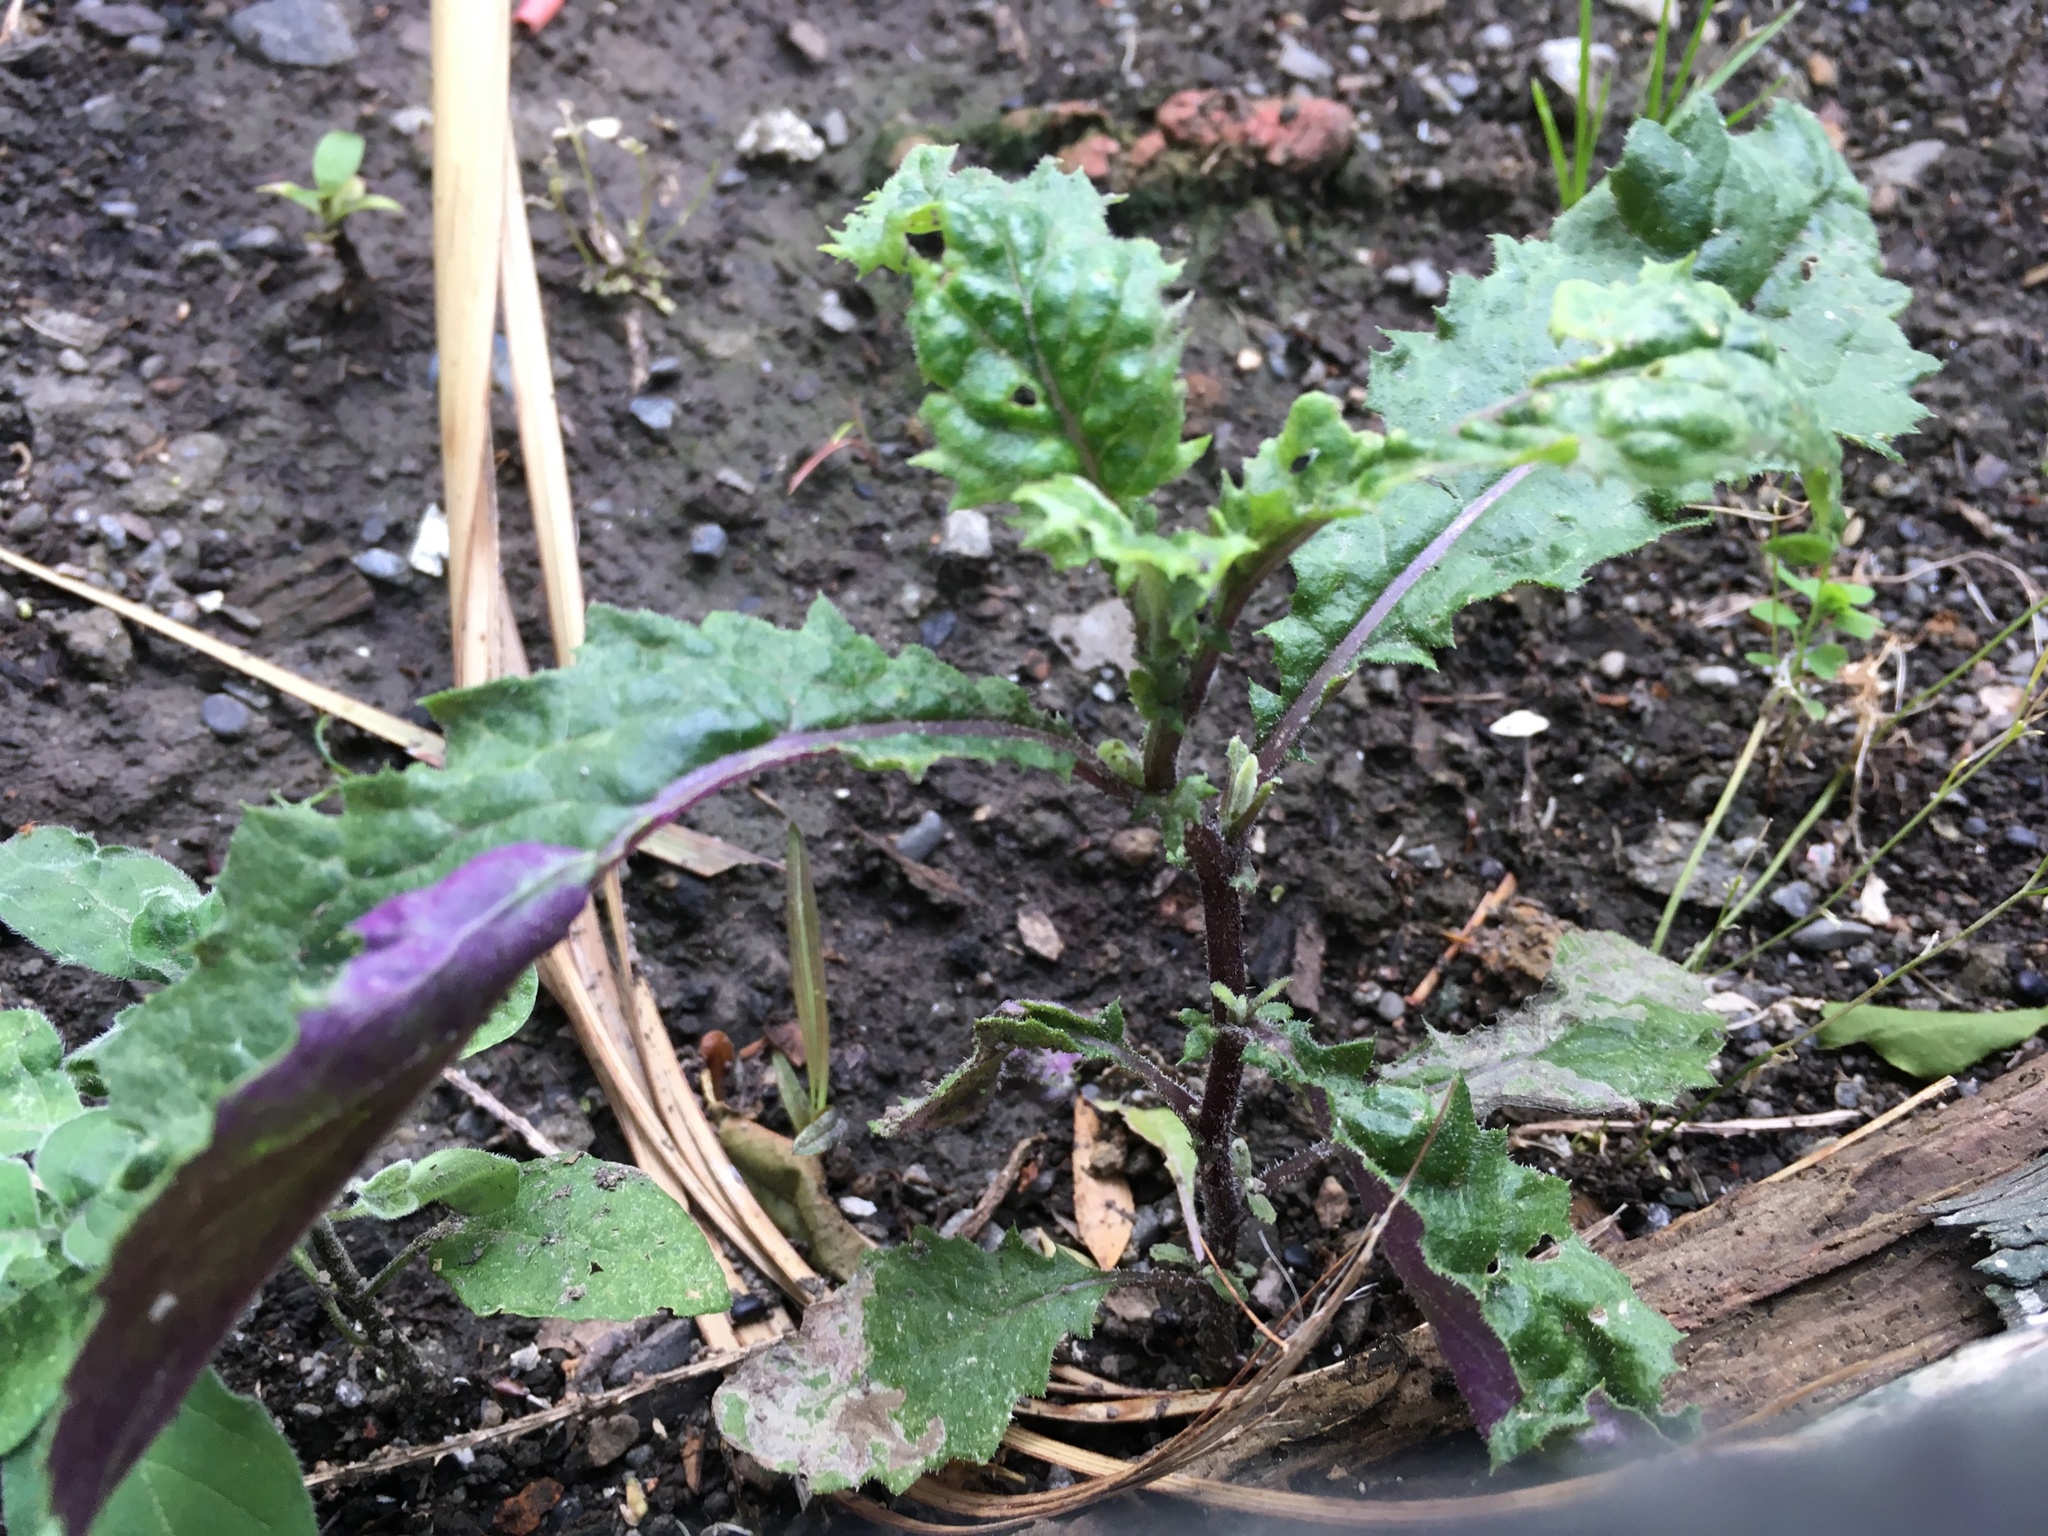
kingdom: Plantae
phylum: Tracheophyta
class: Magnoliopsida
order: Asterales
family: Asteraceae
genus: Senecio
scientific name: Senecio minimus
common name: Toothed fireweed
